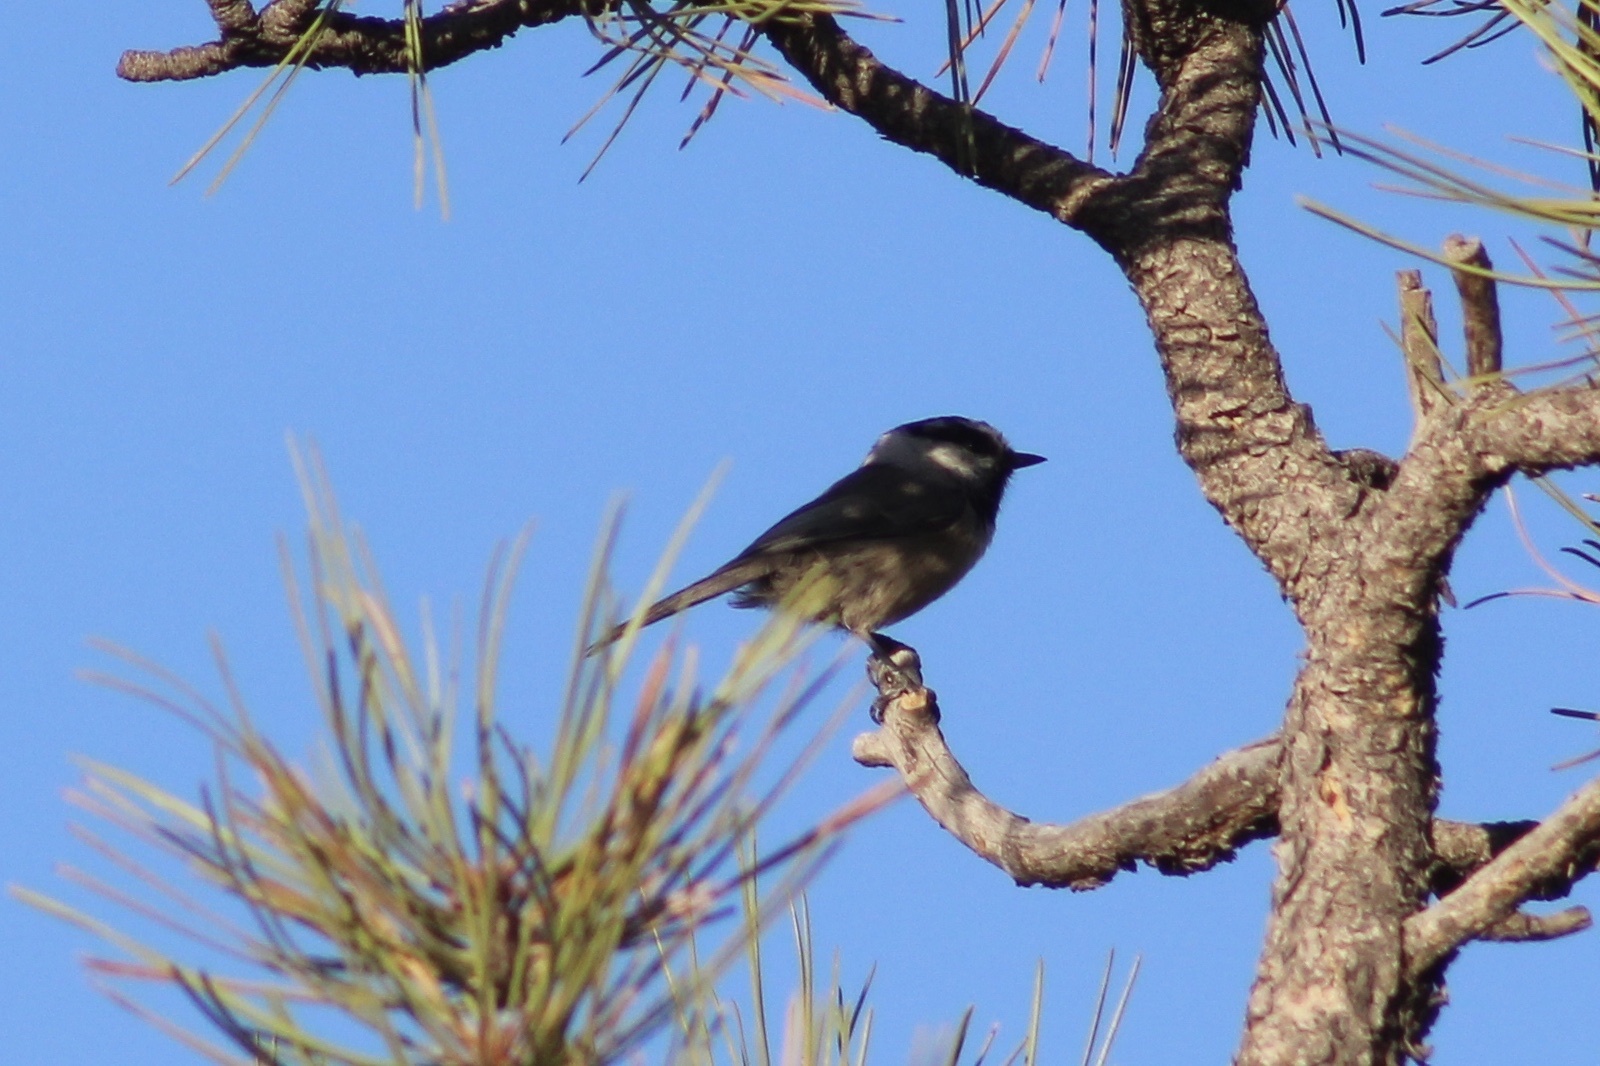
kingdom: Animalia
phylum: Chordata
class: Aves
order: Passeriformes
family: Paridae
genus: Poecile
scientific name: Poecile gambeli
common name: Mountain chickadee
